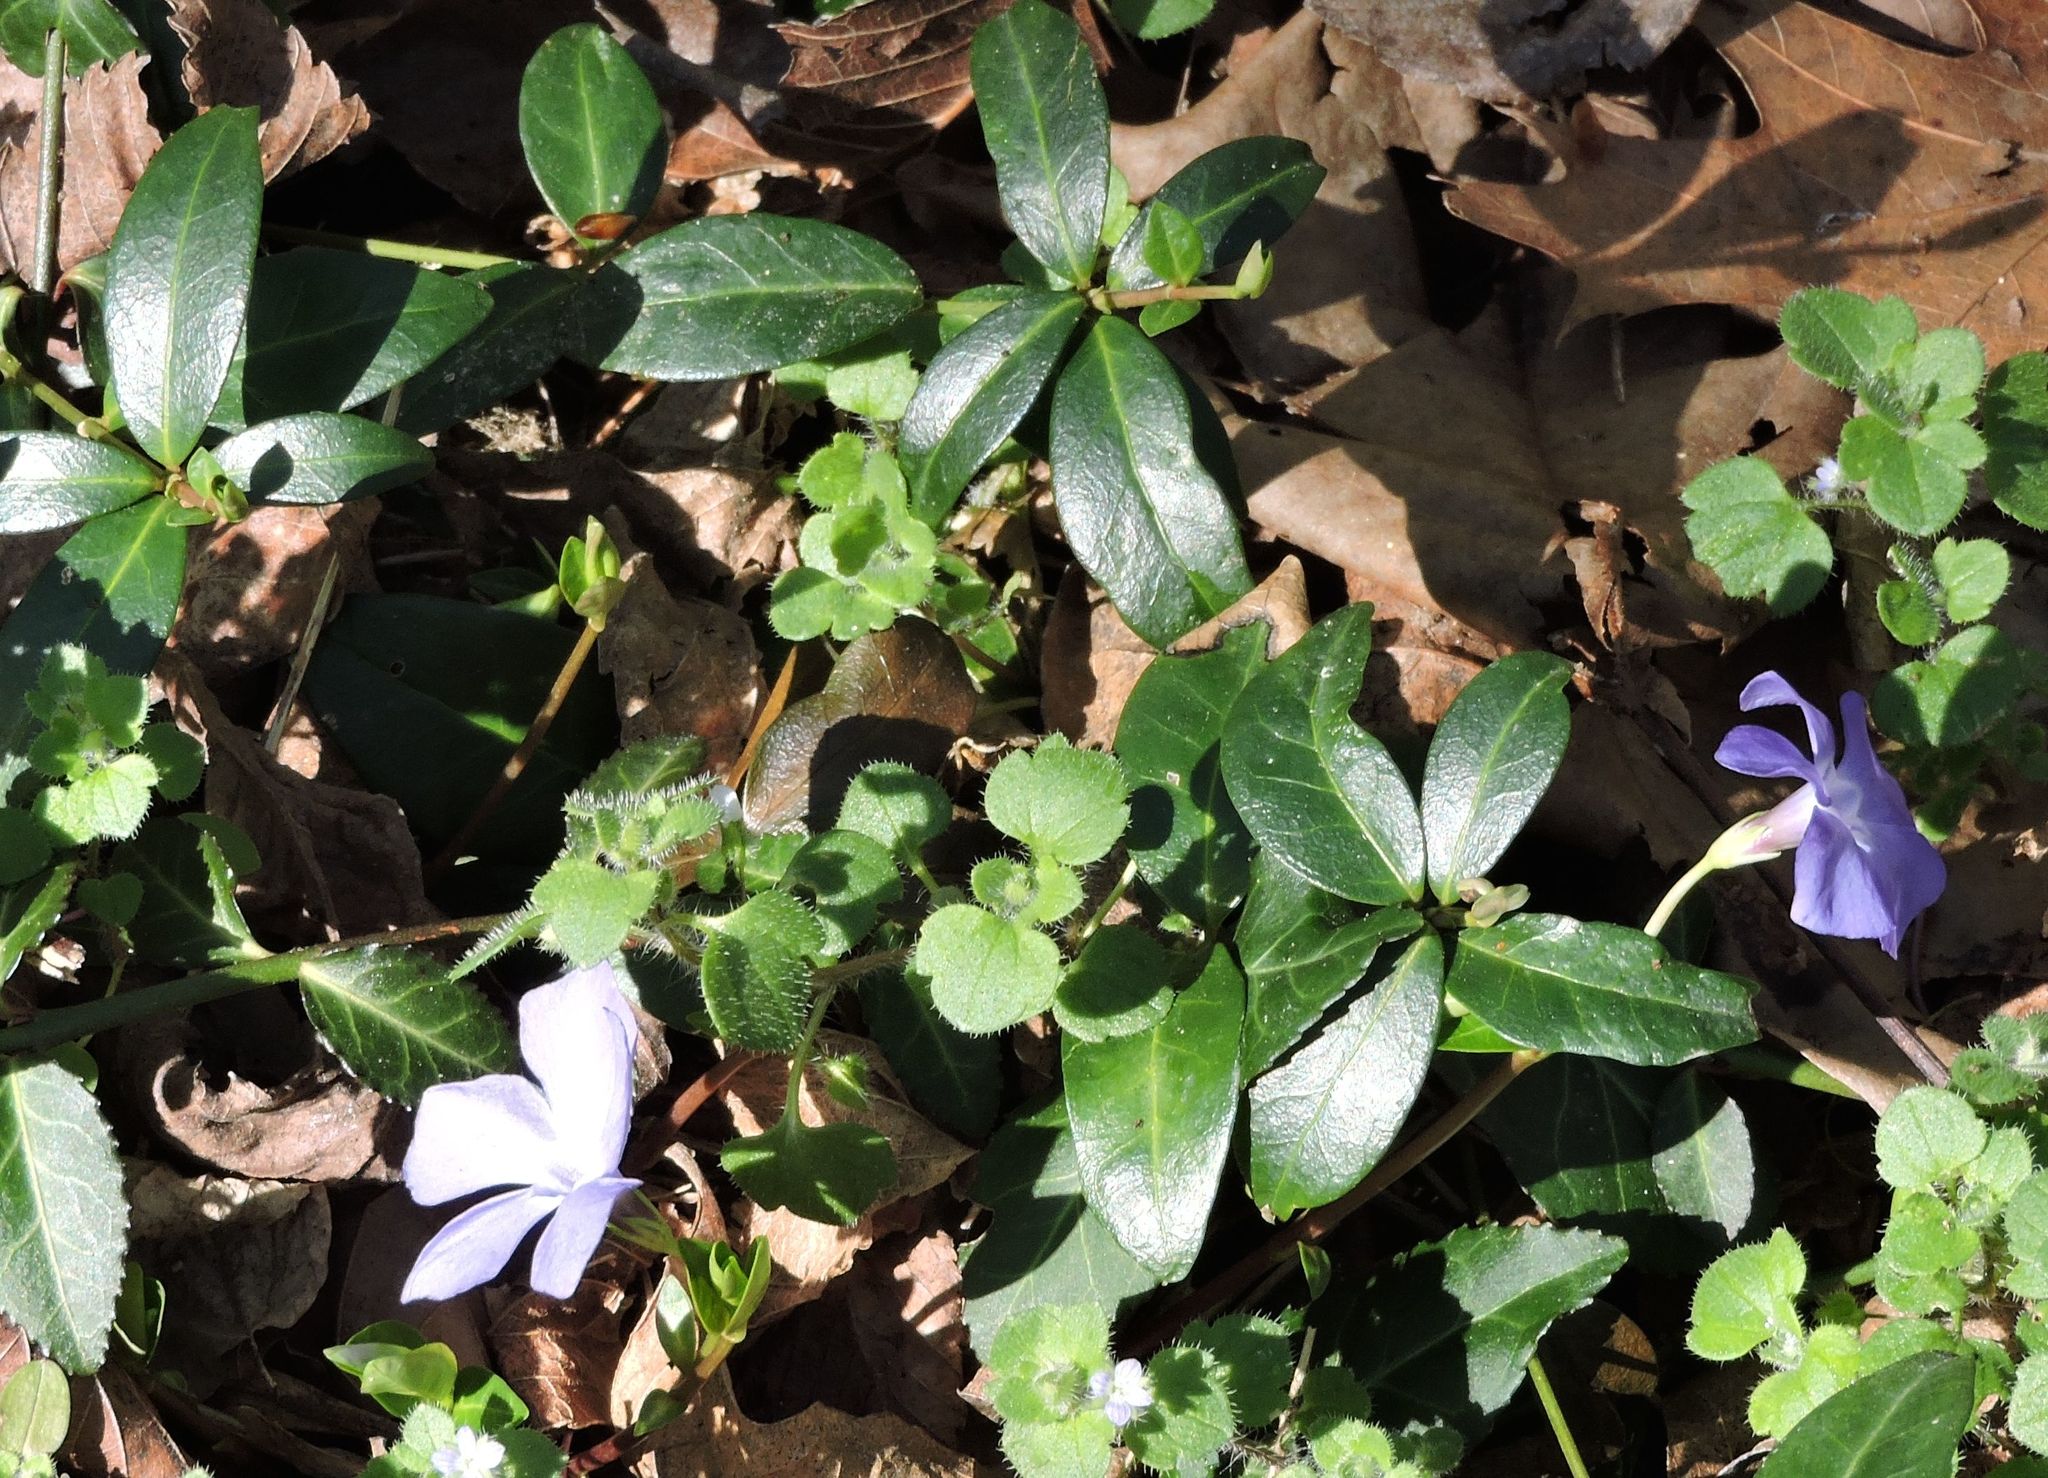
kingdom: Plantae
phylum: Tracheophyta
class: Magnoliopsida
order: Gentianales
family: Apocynaceae
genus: Vinca
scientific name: Vinca minor
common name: Lesser periwinkle
